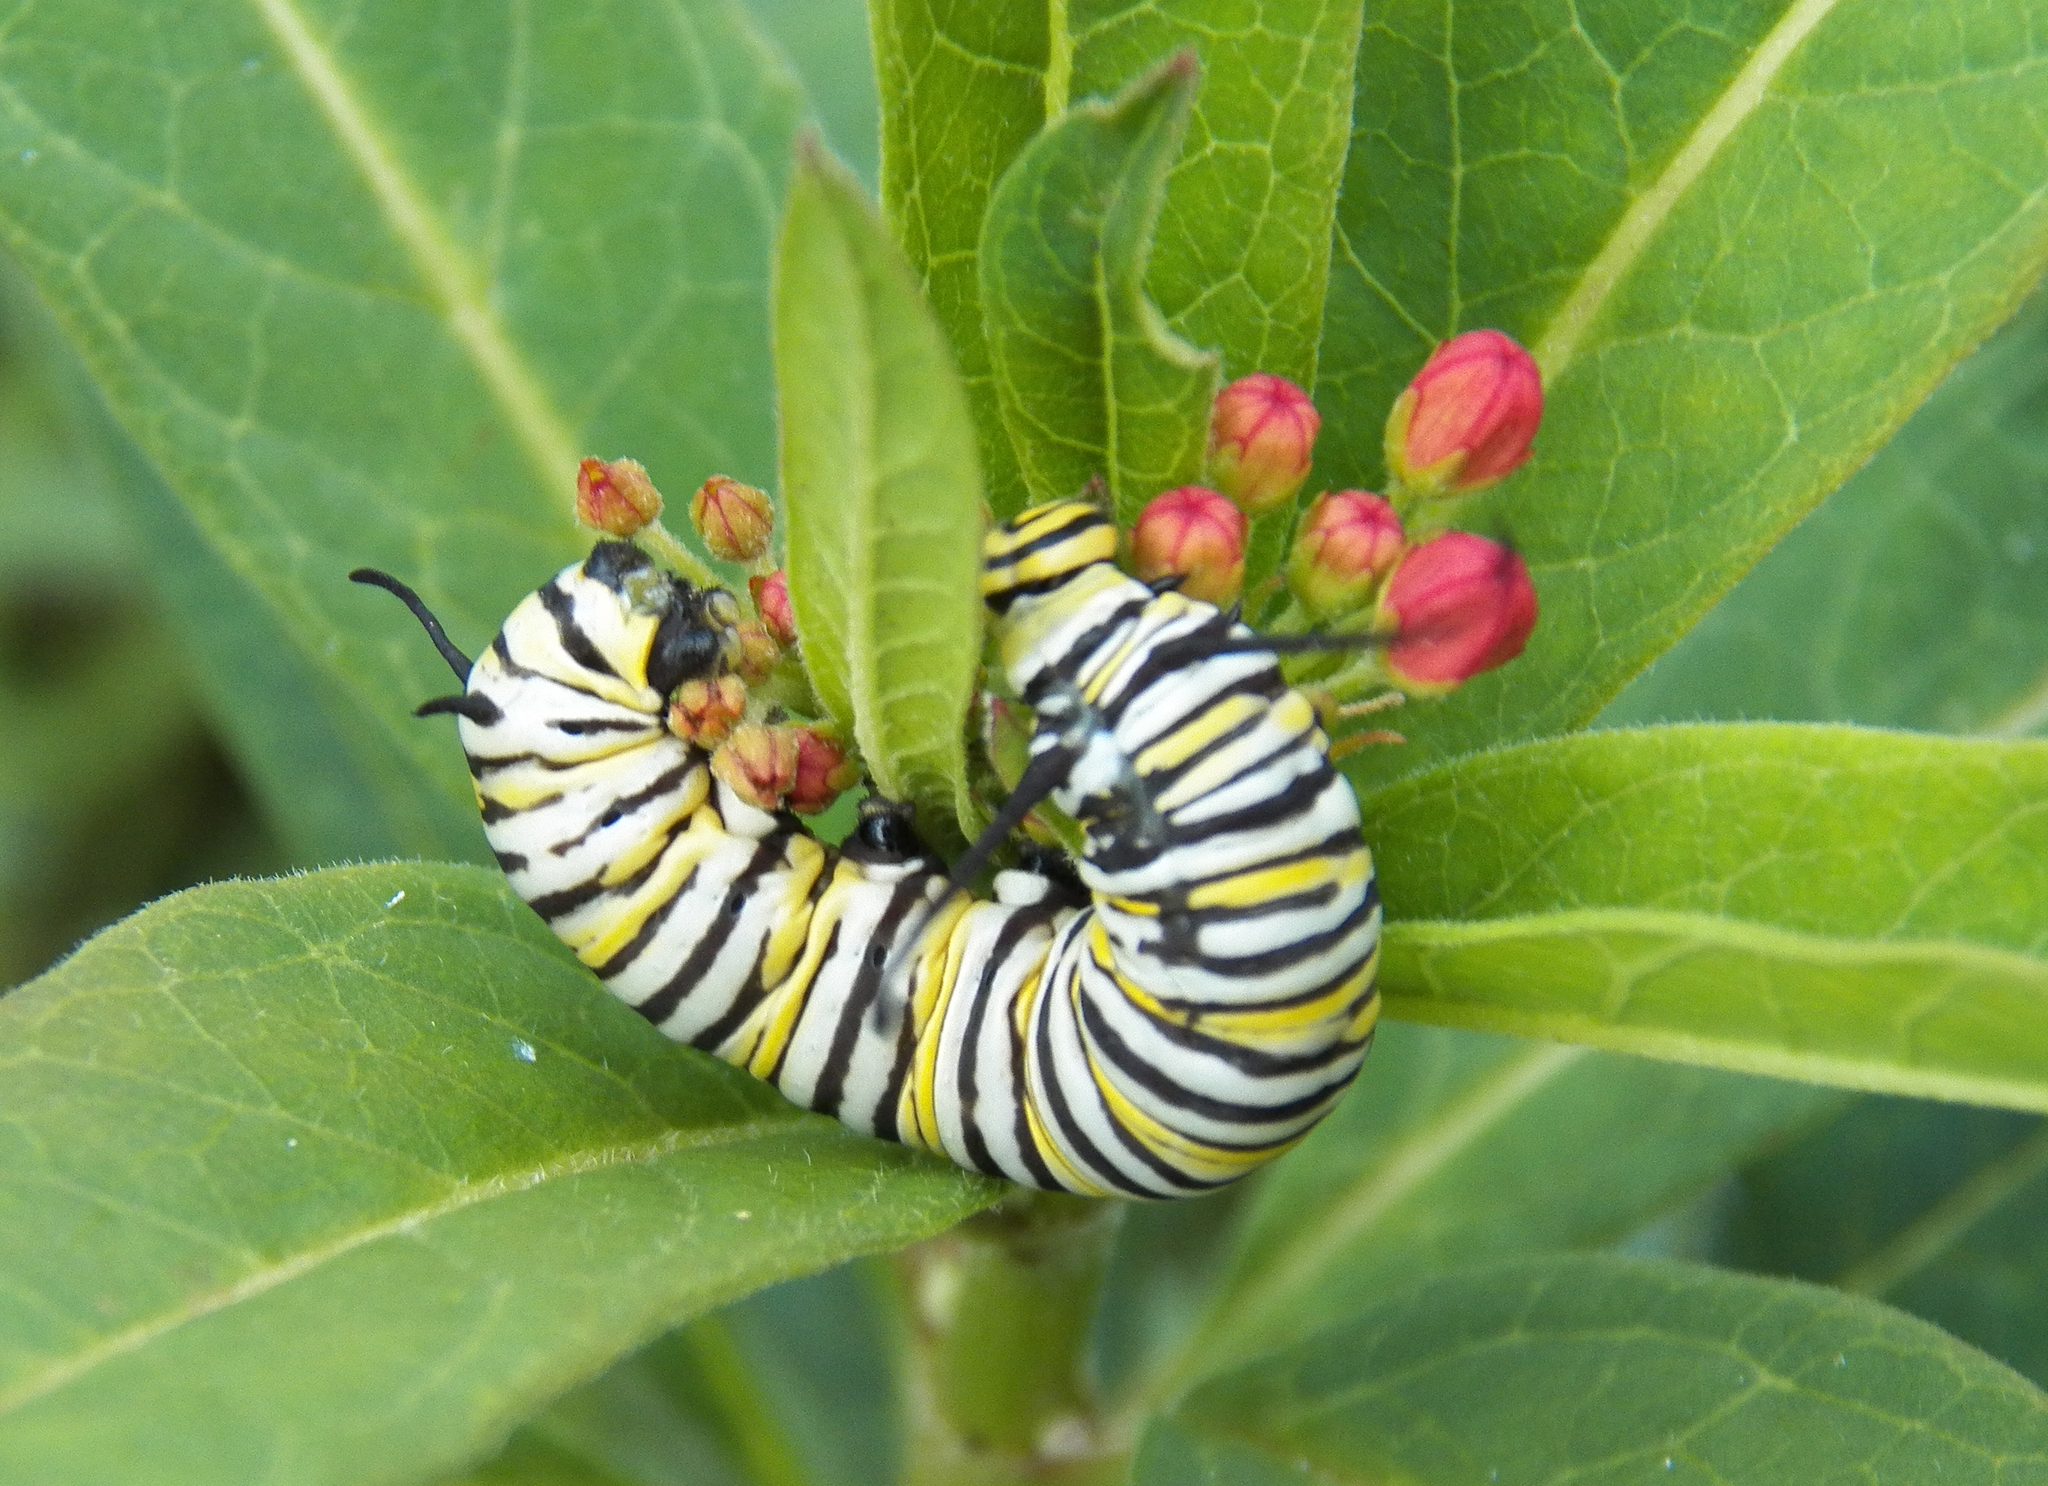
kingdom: Animalia
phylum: Arthropoda
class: Insecta
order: Lepidoptera
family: Nymphalidae
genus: Danaus
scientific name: Danaus plexippus
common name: Monarch
